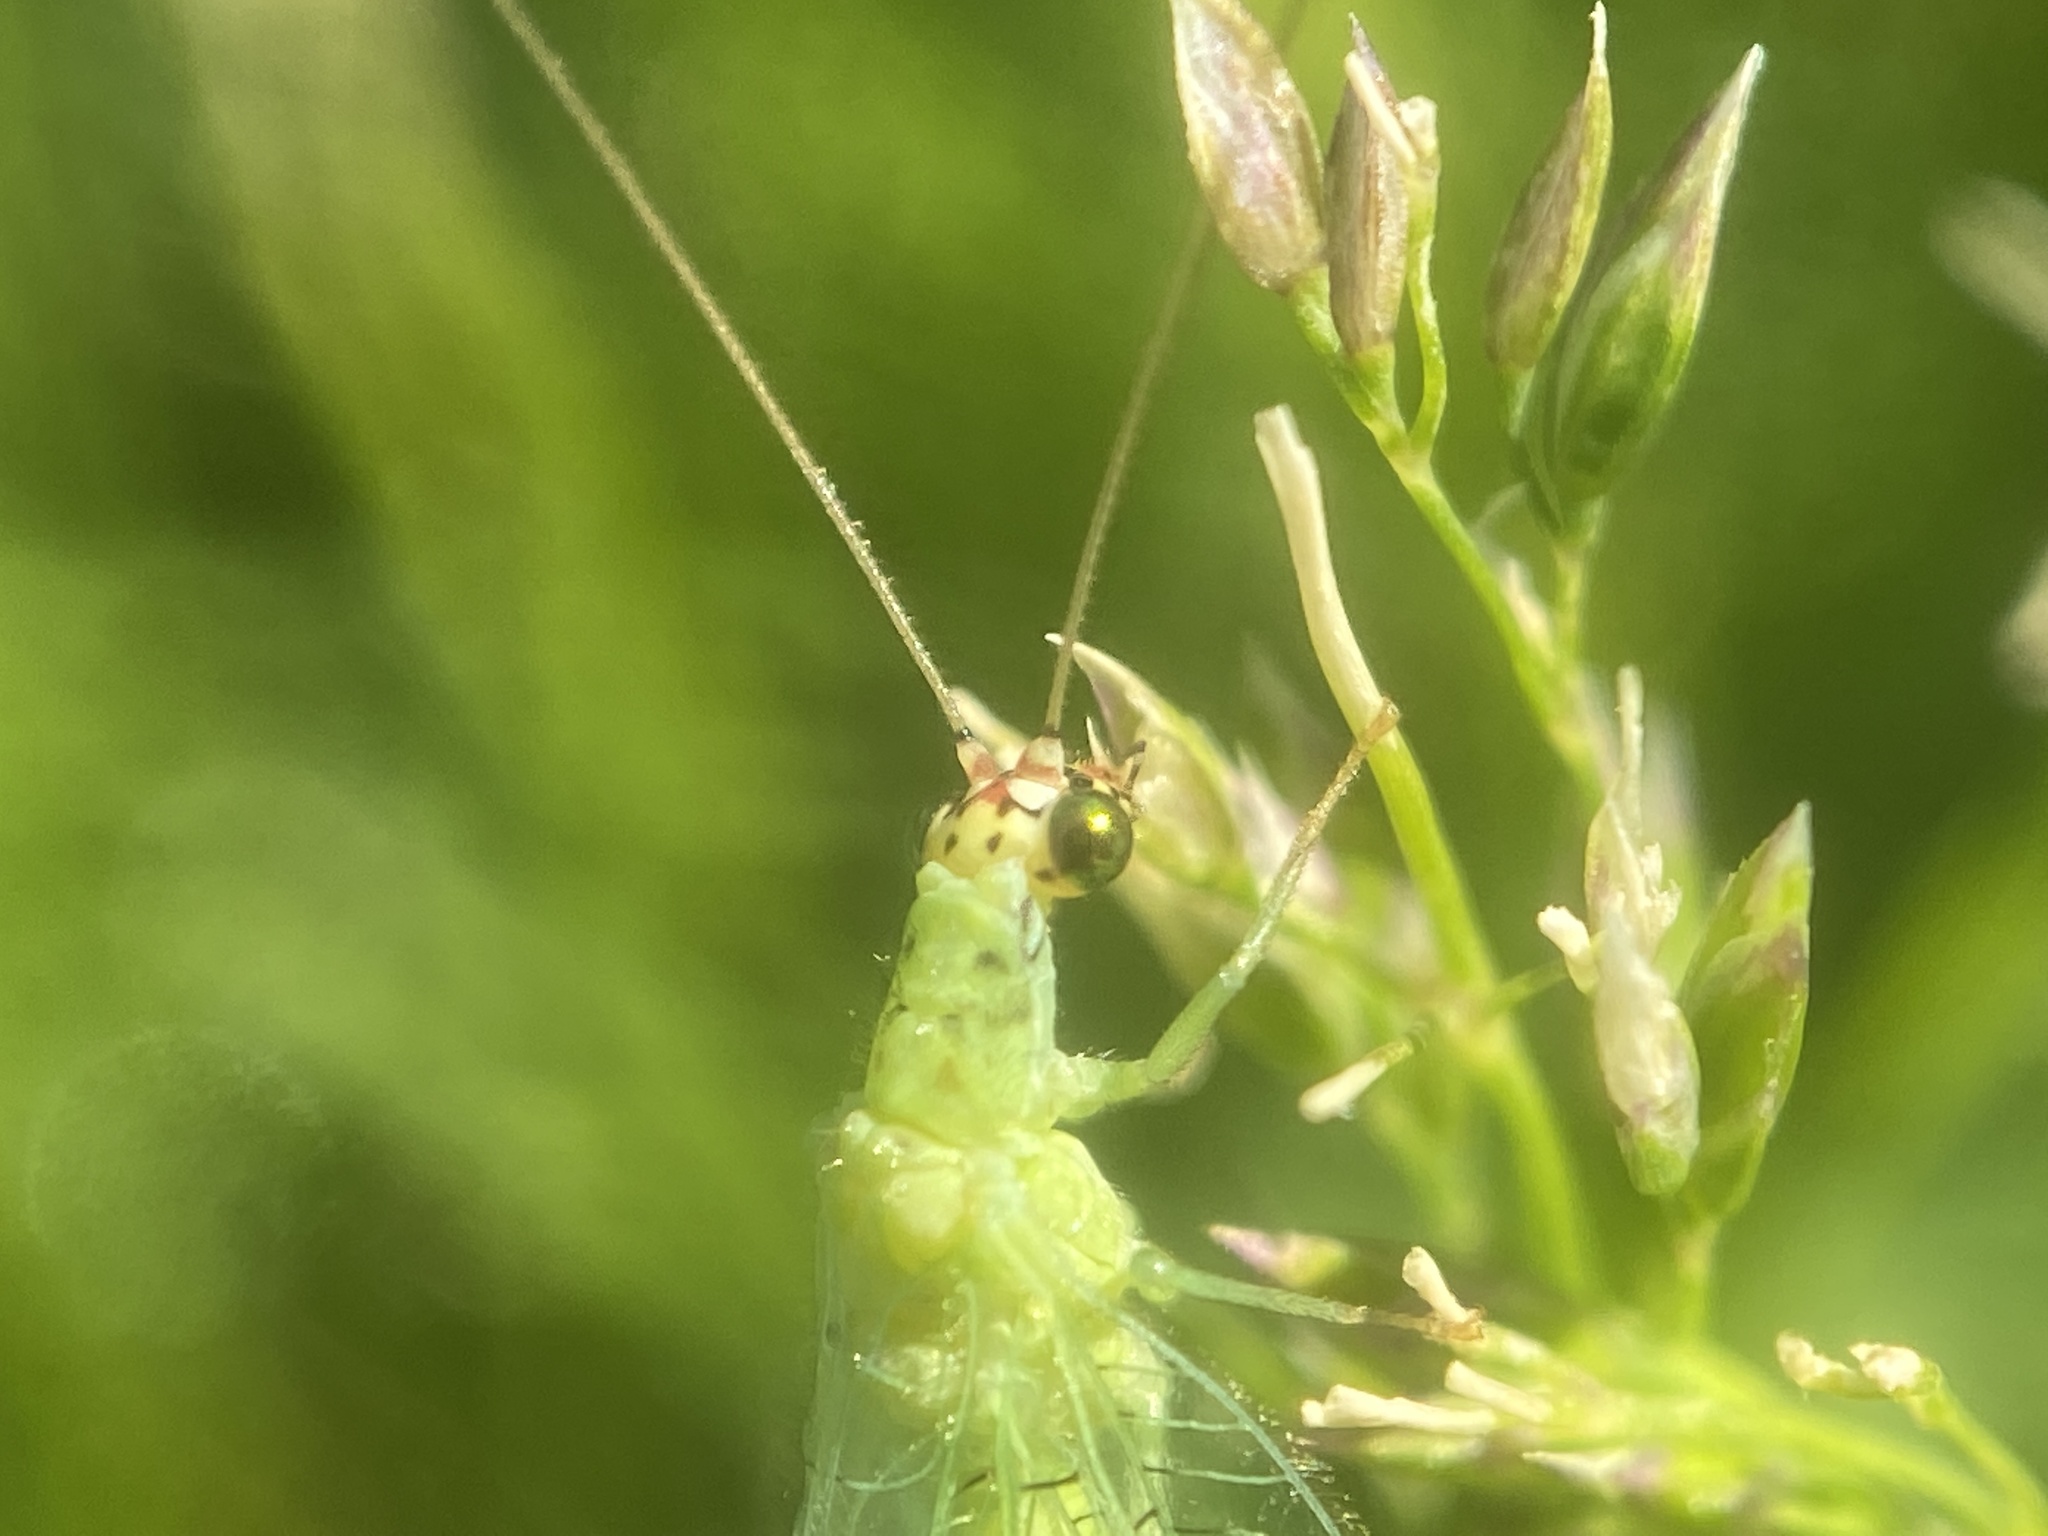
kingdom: Animalia
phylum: Arthropoda
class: Insecta
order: Neuroptera
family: Chrysopidae
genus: Chrysopa
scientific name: Chrysopa oculata
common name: Golden-eyed lacewing
